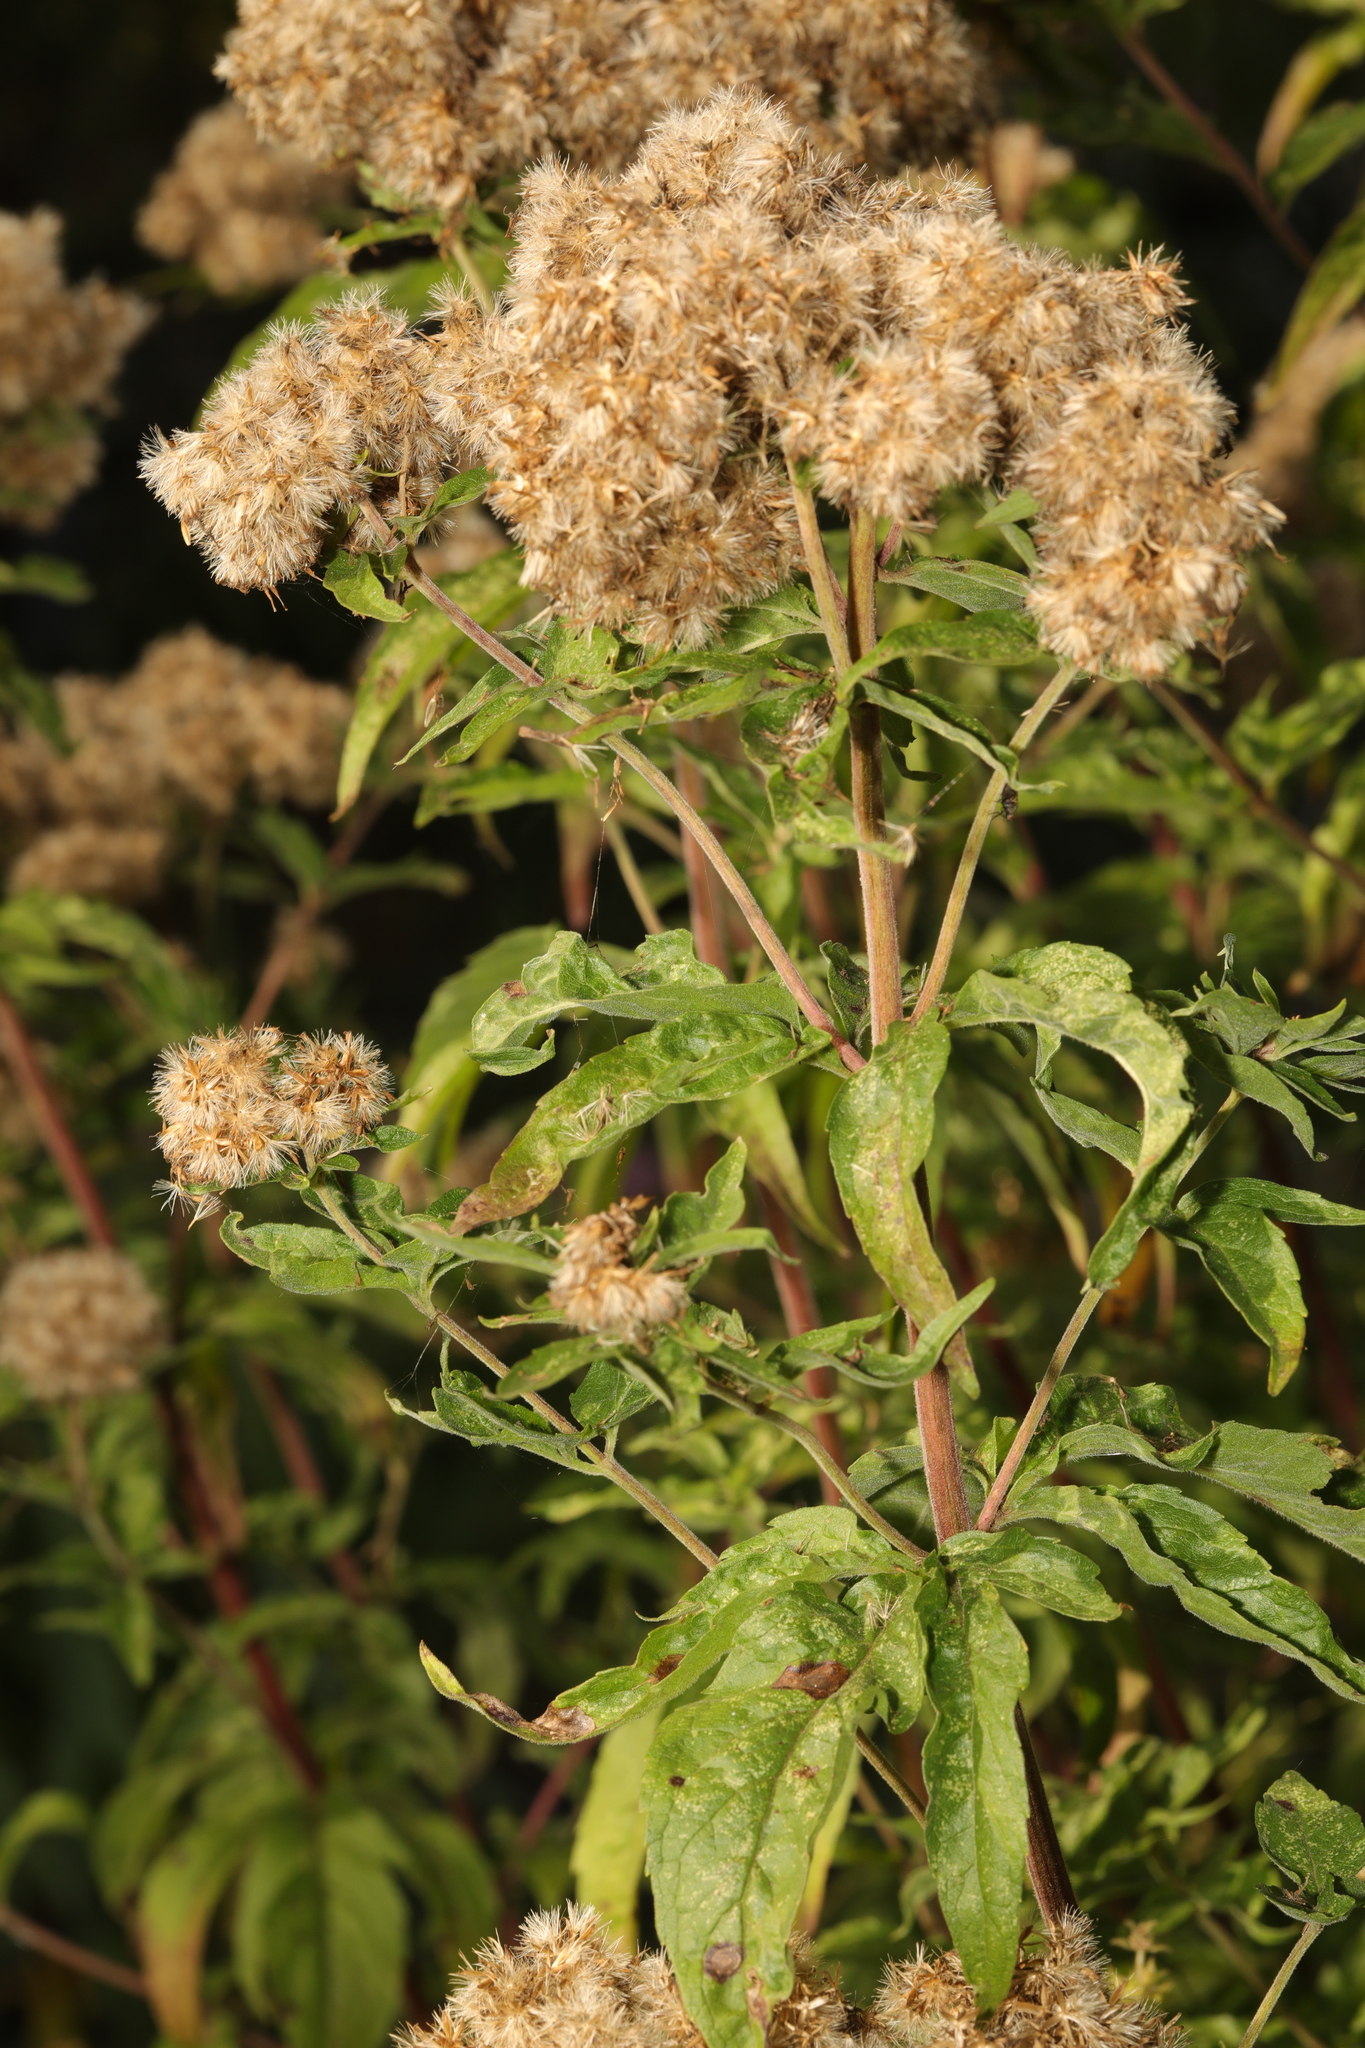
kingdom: Plantae
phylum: Tracheophyta
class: Magnoliopsida
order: Asterales
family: Asteraceae
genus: Eupatorium
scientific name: Eupatorium cannabinum
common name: Hemp-agrimony
